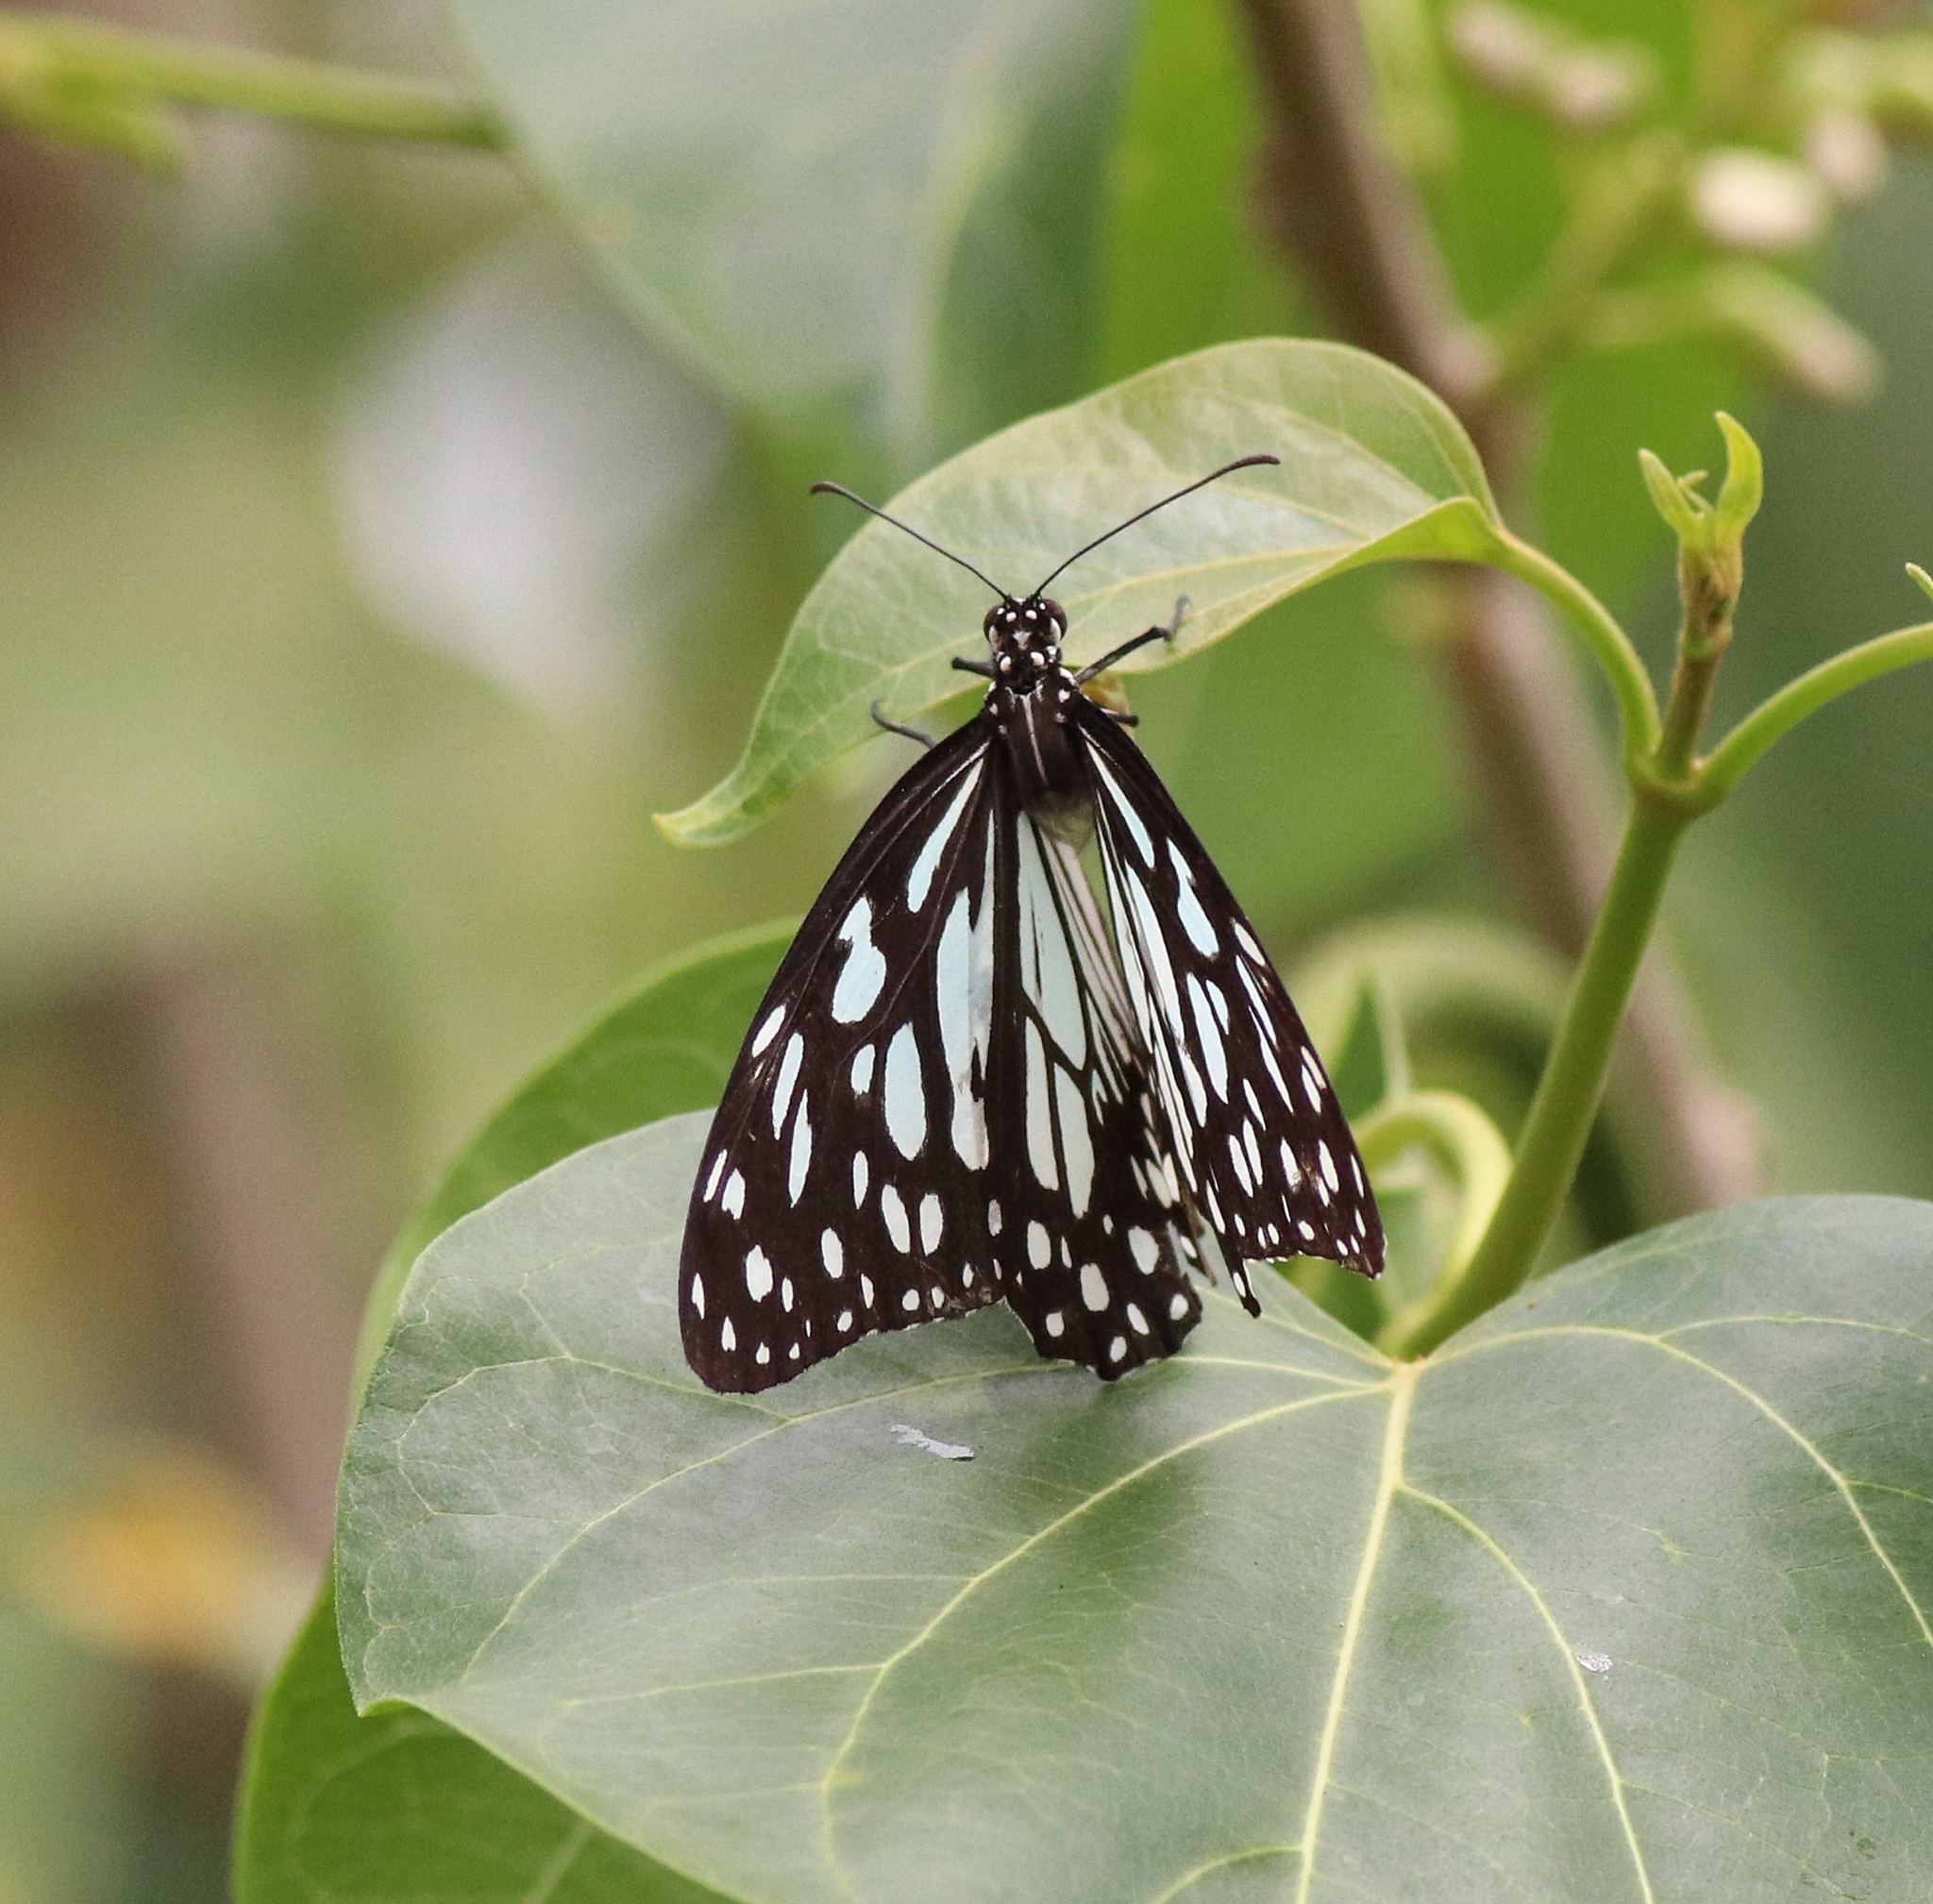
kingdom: Animalia
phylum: Arthropoda
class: Insecta
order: Lepidoptera
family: Nymphalidae
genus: Tirumala
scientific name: Tirumala limniace
